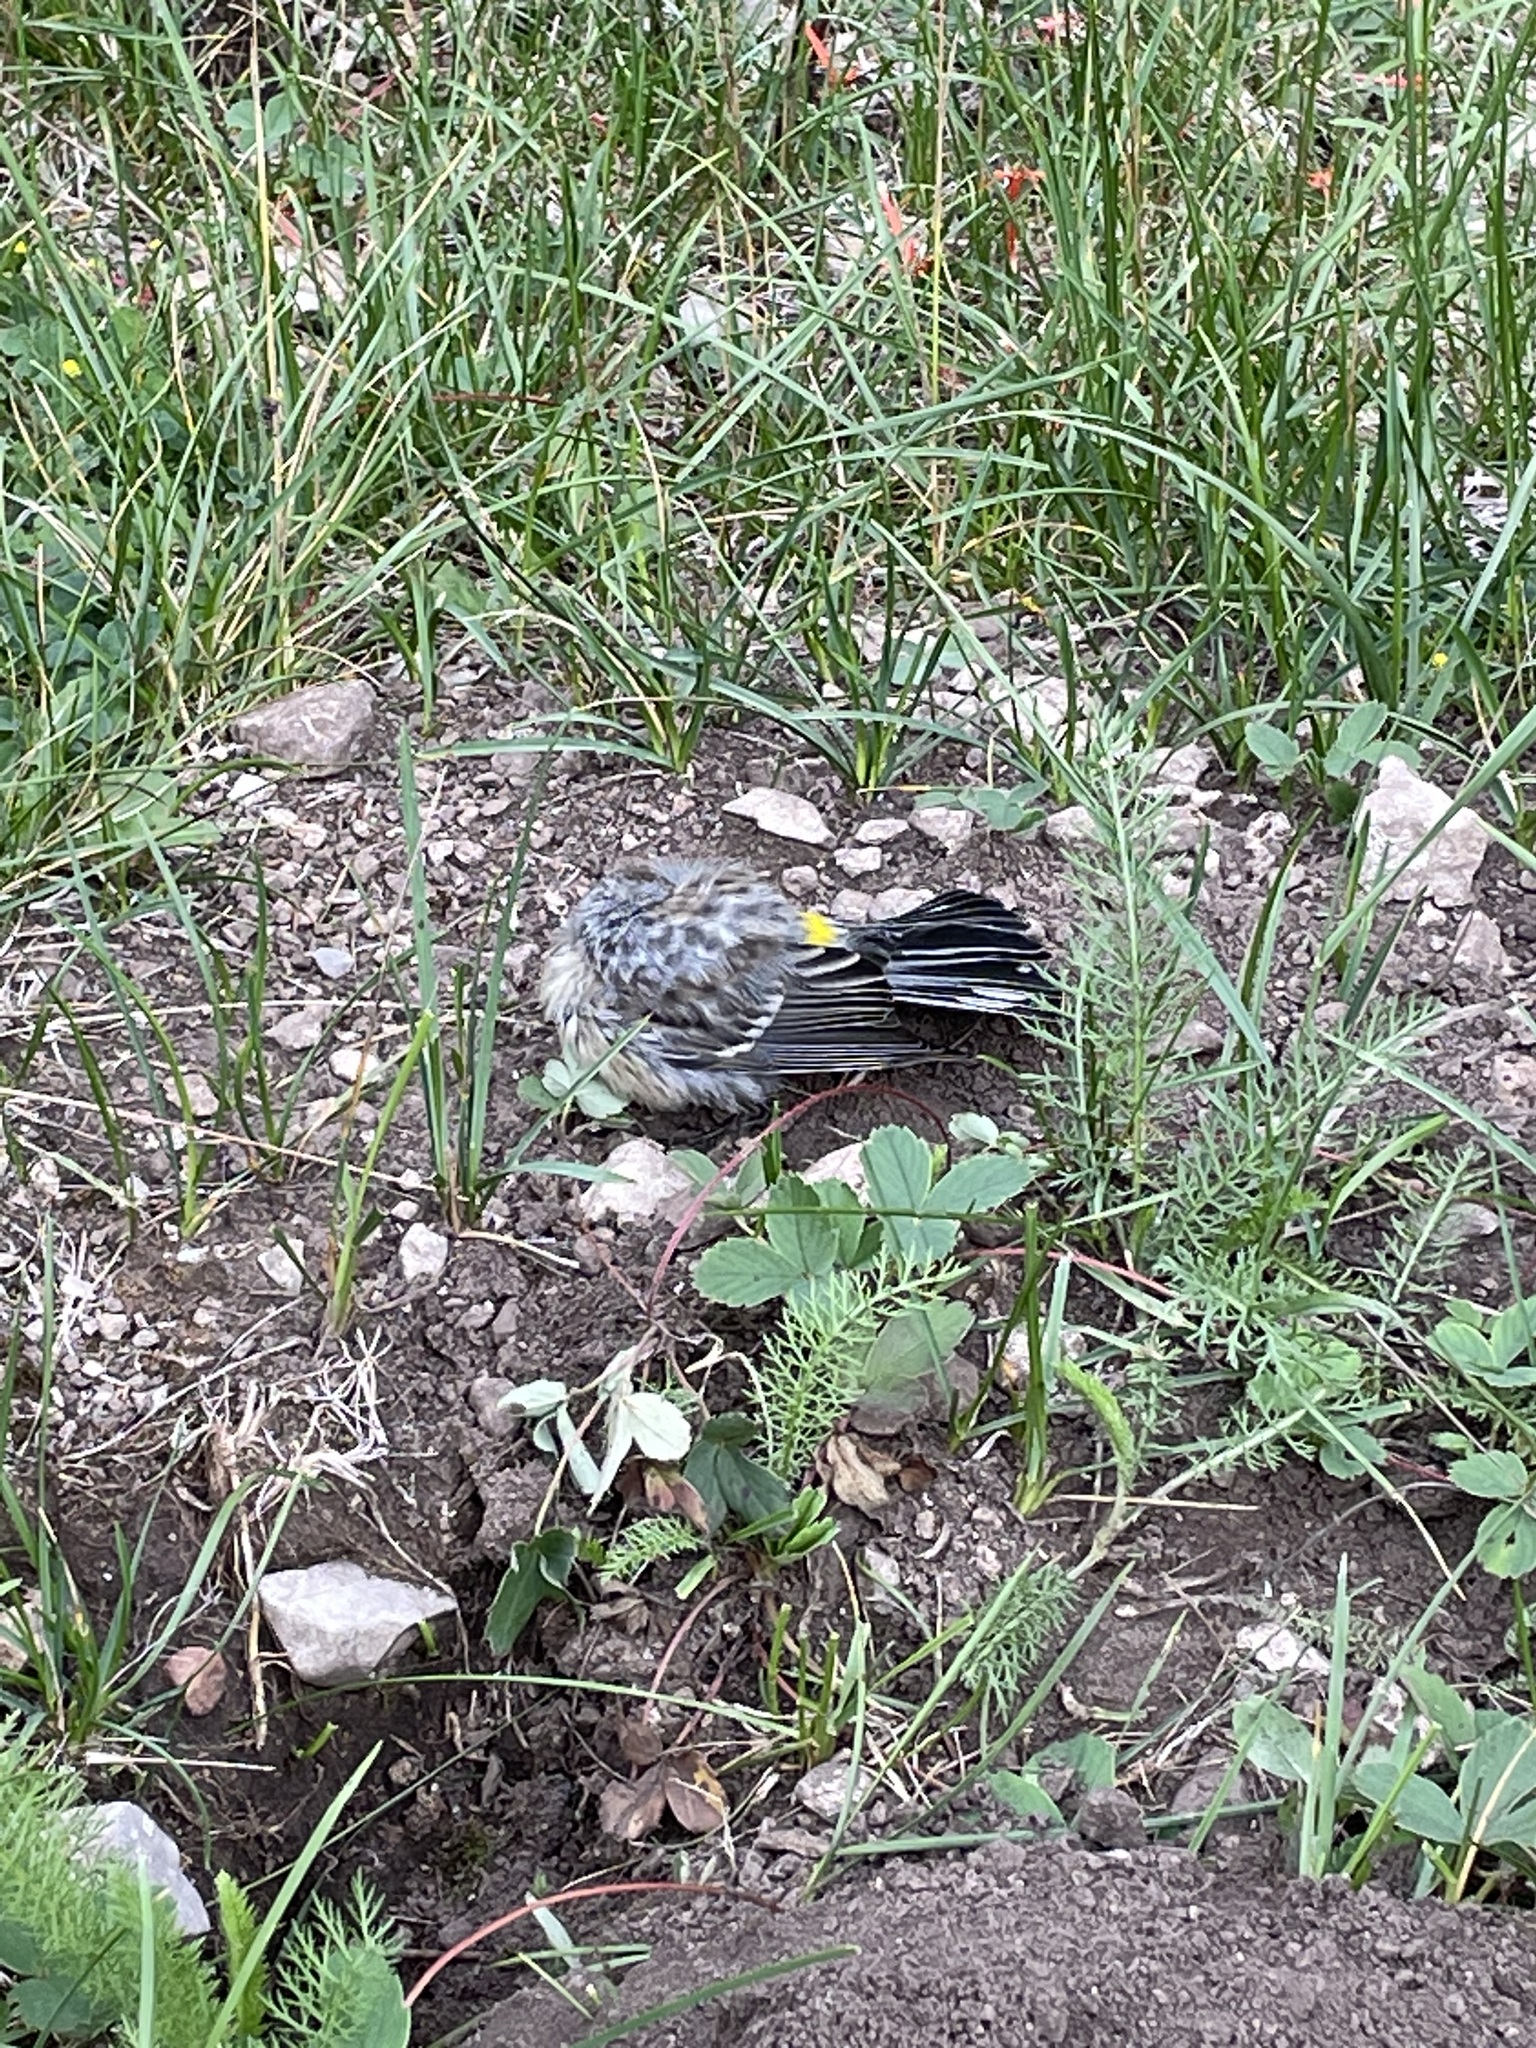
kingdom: Animalia
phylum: Chordata
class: Aves
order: Passeriformes
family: Parulidae
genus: Setophaga
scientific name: Setophaga coronata
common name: Myrtle warbler
